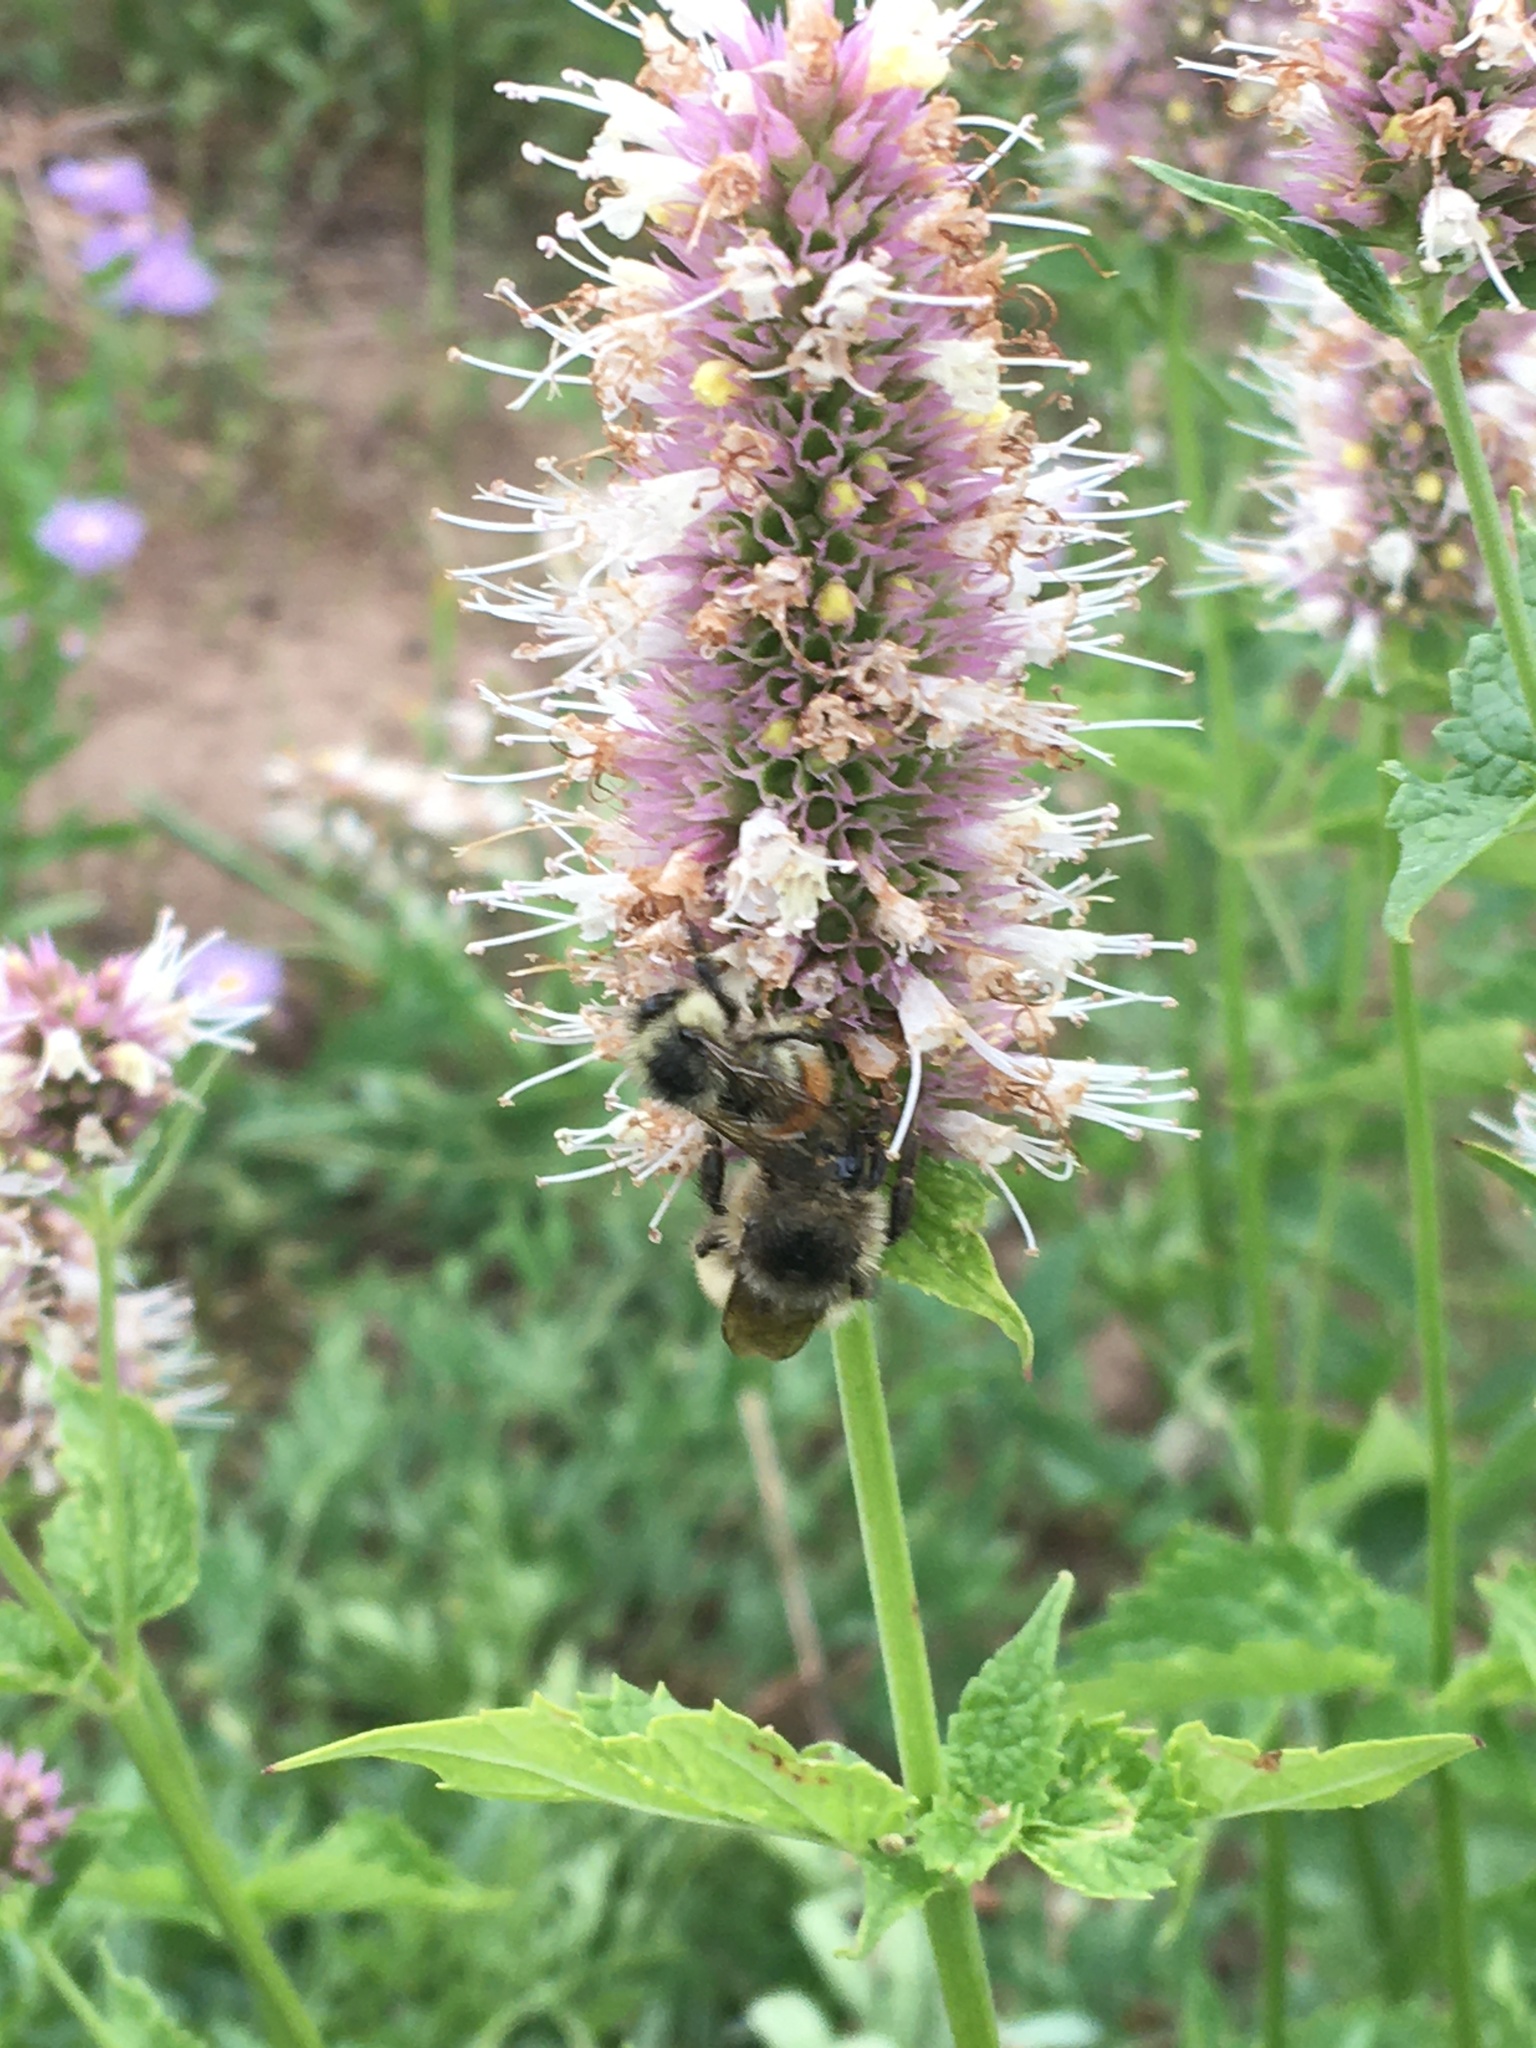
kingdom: Animalia
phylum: Arthropoda
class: Insecta
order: Hymenoptera
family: Apidae
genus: Bombus
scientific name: Bombus flavifrons
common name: Yellow head bumble bee
